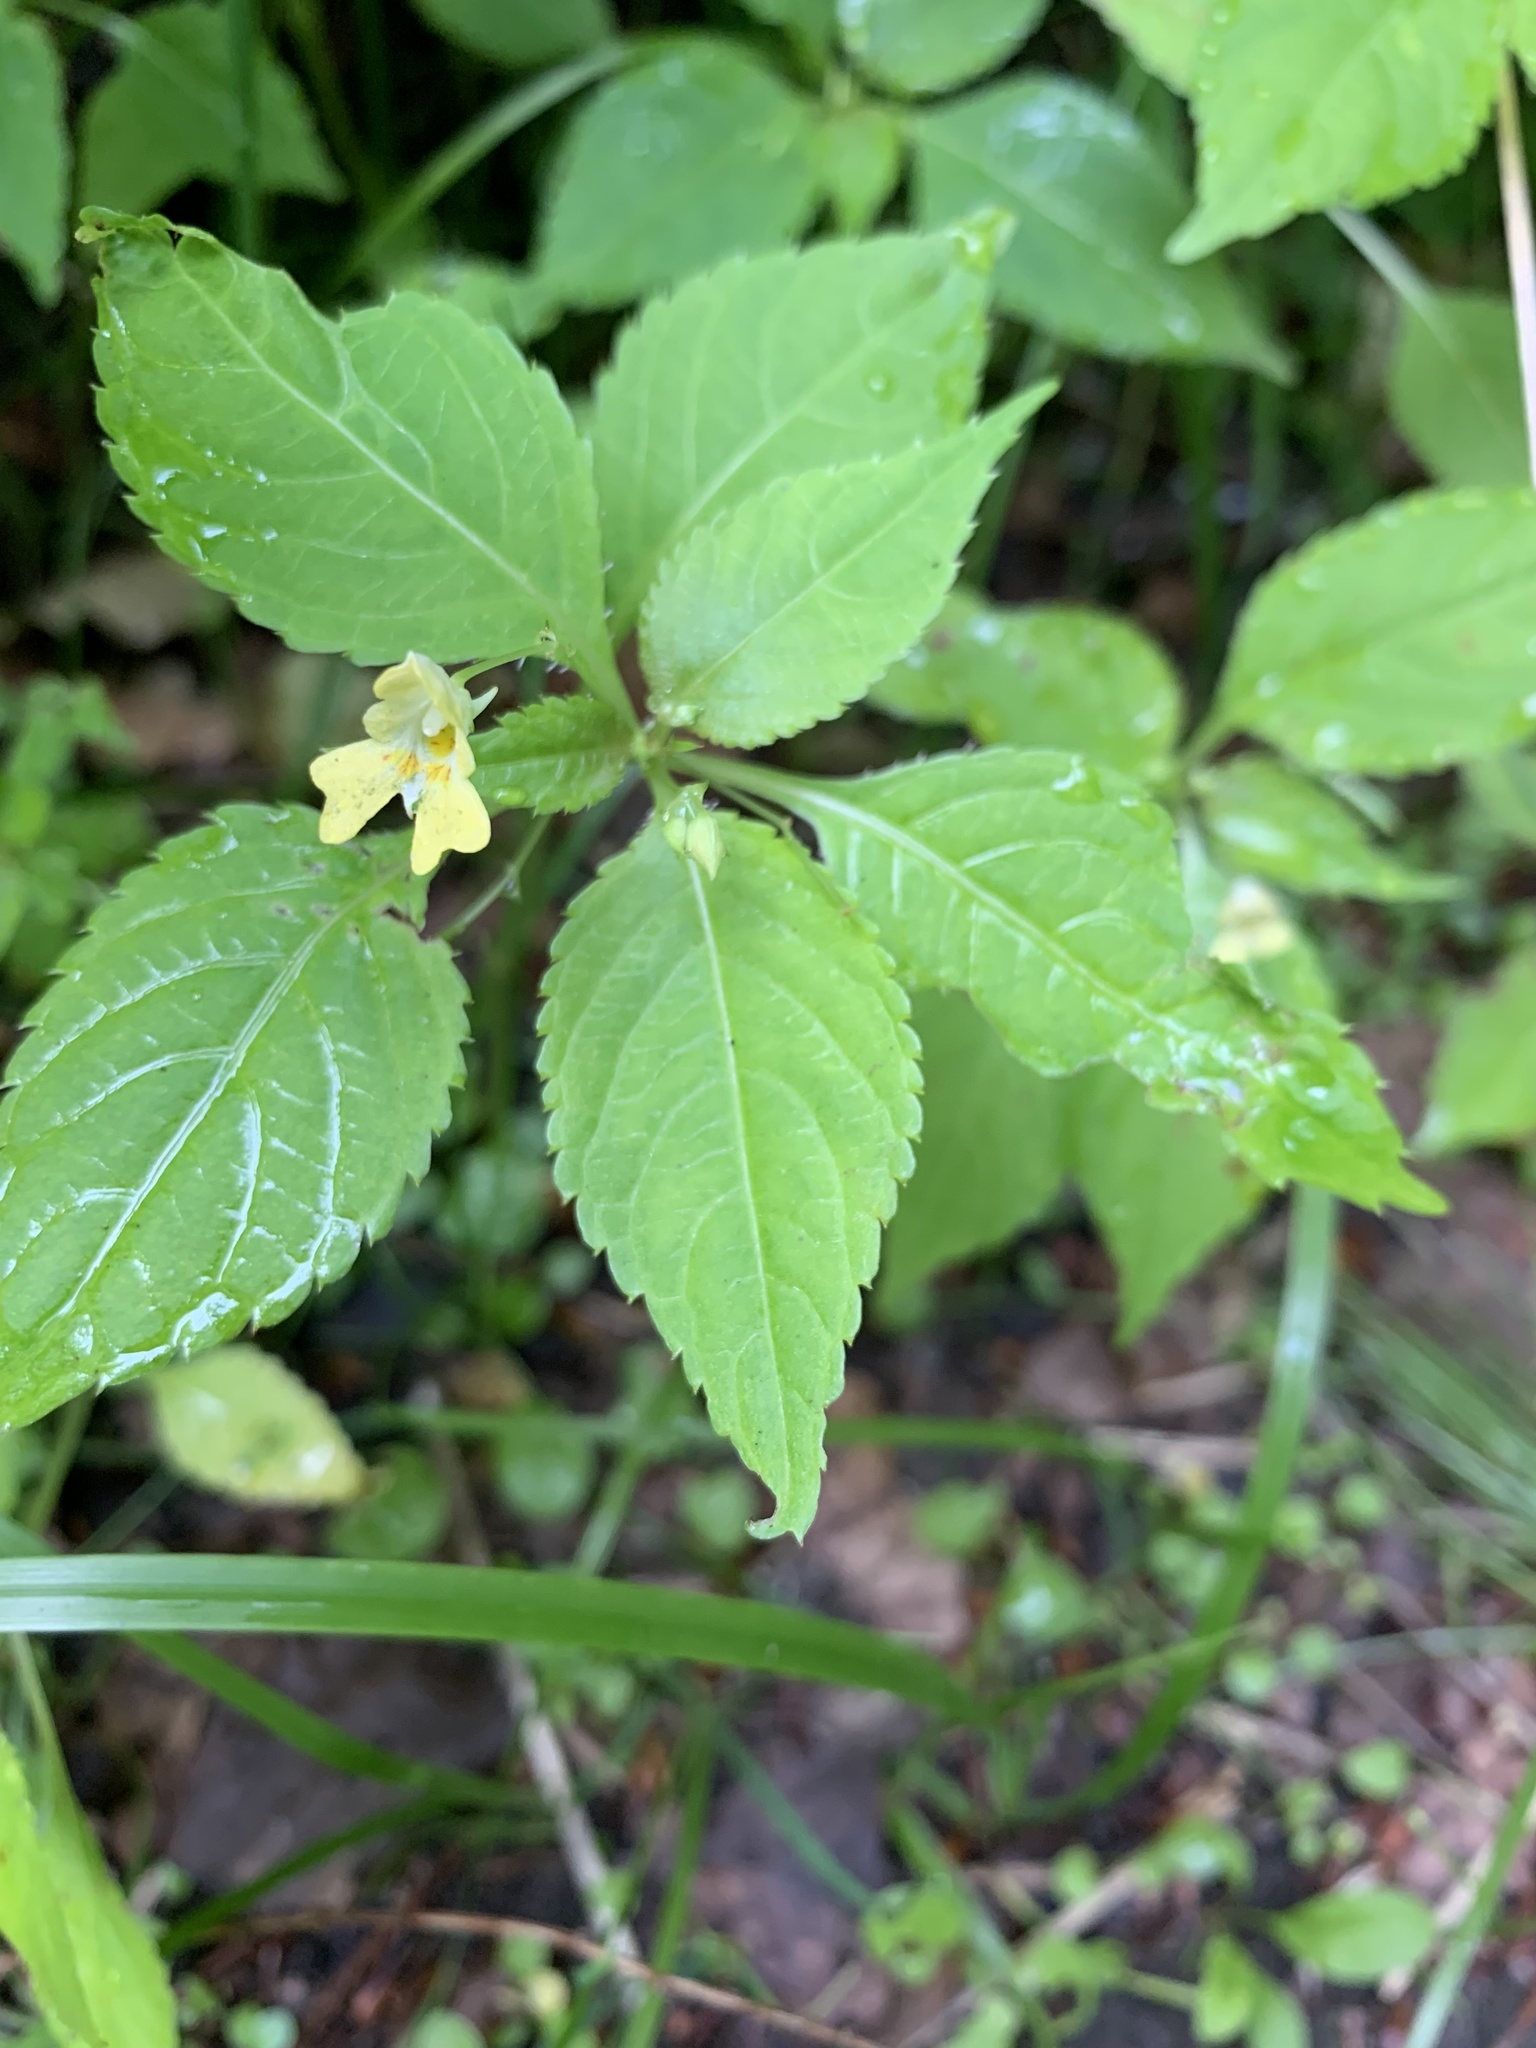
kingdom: Plantae
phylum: Tracheophyta
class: Magnoliopsida
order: Ericales
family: Balsaminaceae
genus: Impatiens
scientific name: Impatiens parviflora
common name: Small balsam
